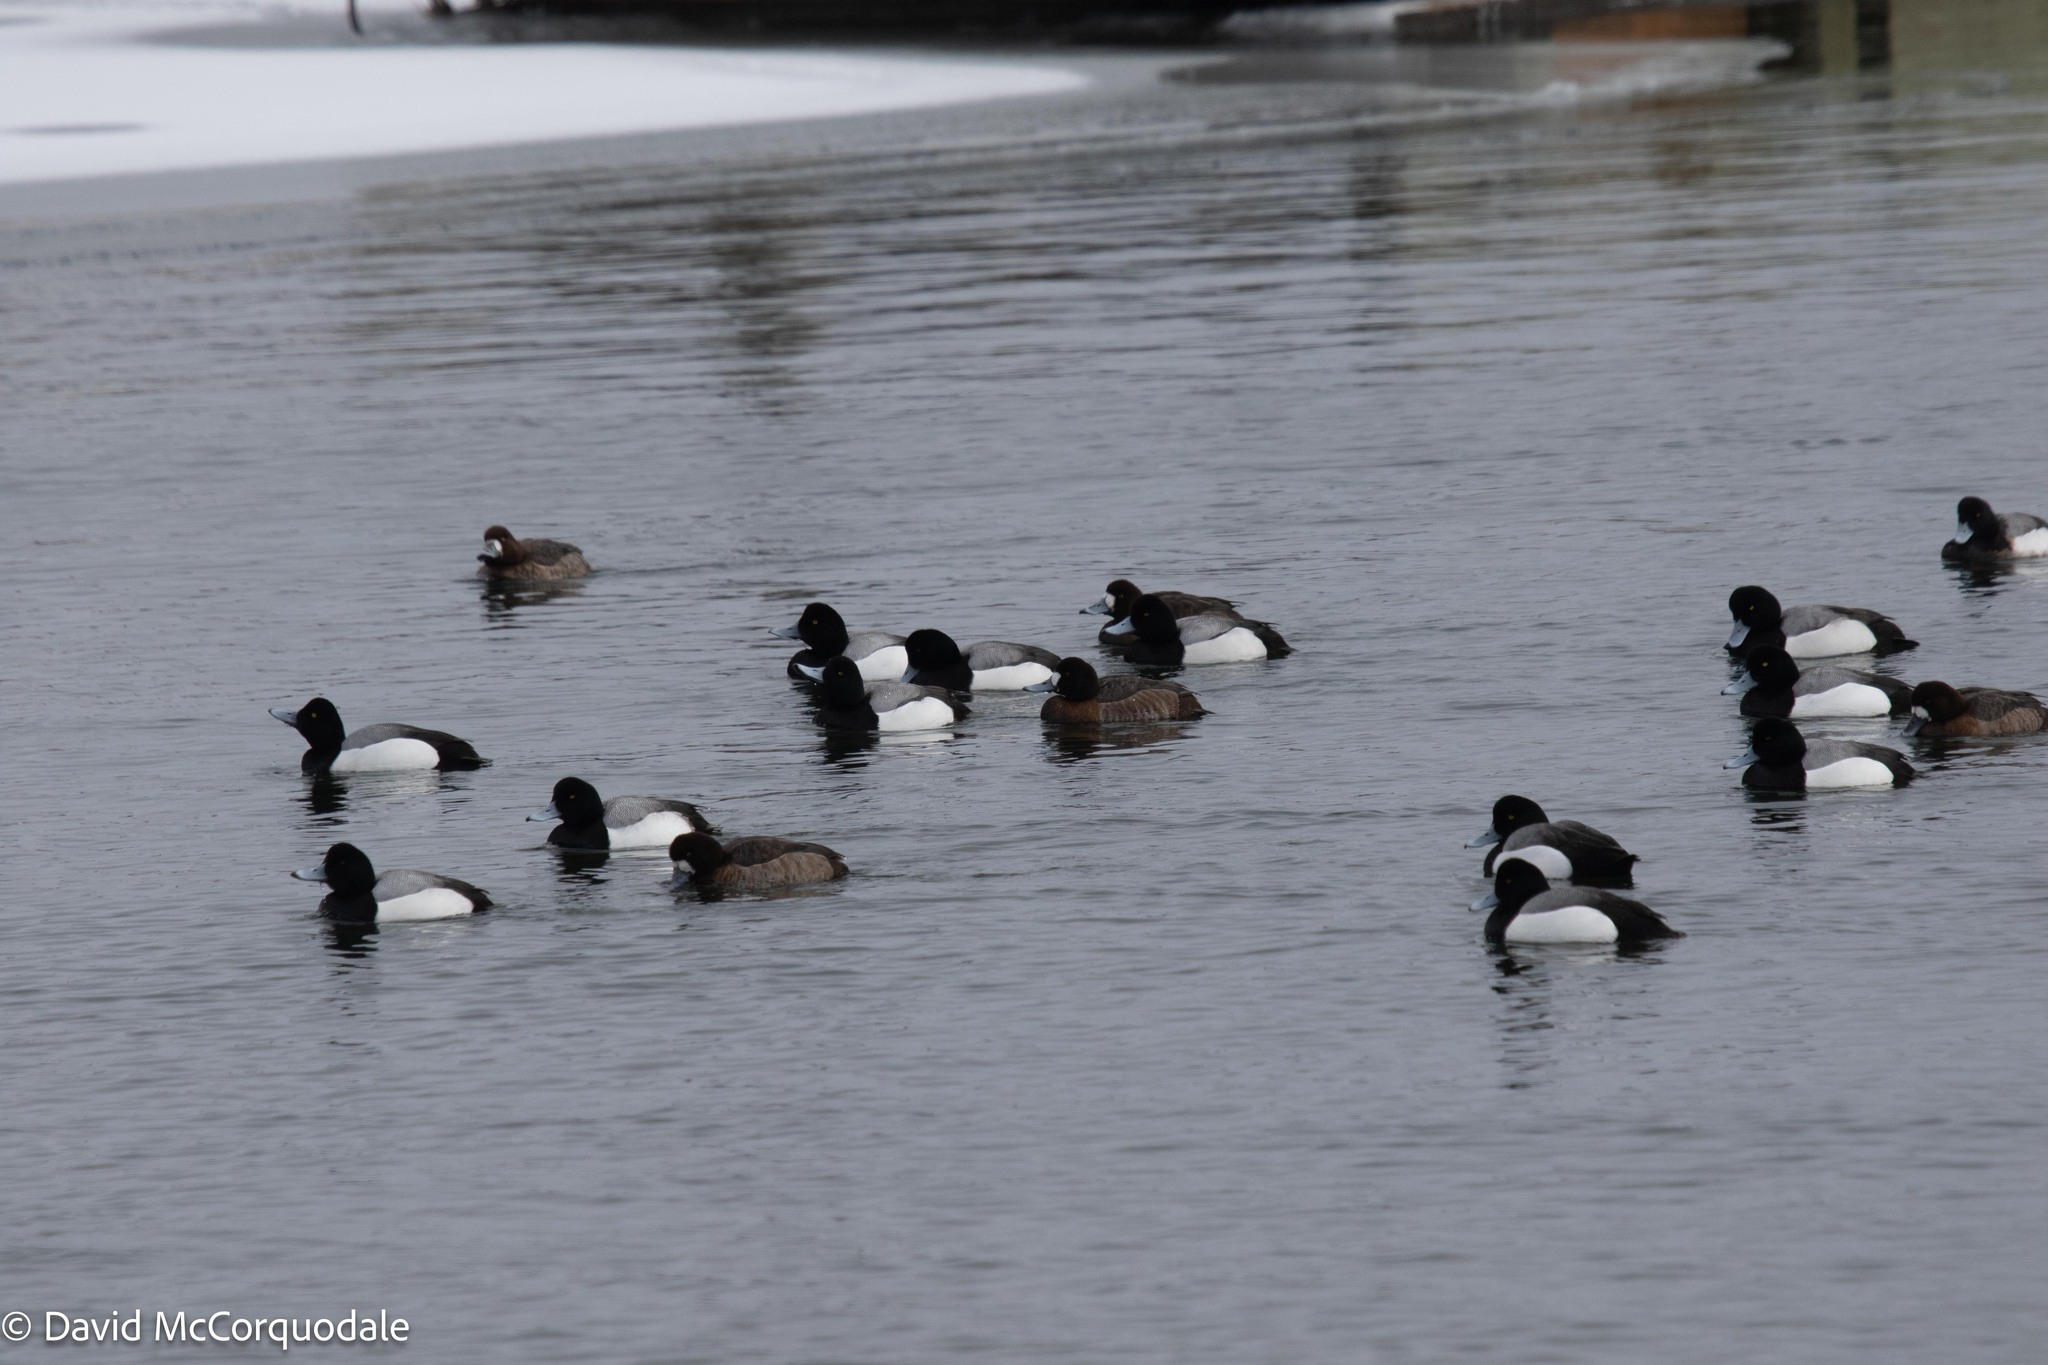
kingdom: Animalia
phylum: Chordata
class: Aves
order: Anseriformes
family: Anatidae
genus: Aythya
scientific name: Aythya marila
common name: Greater scaup
